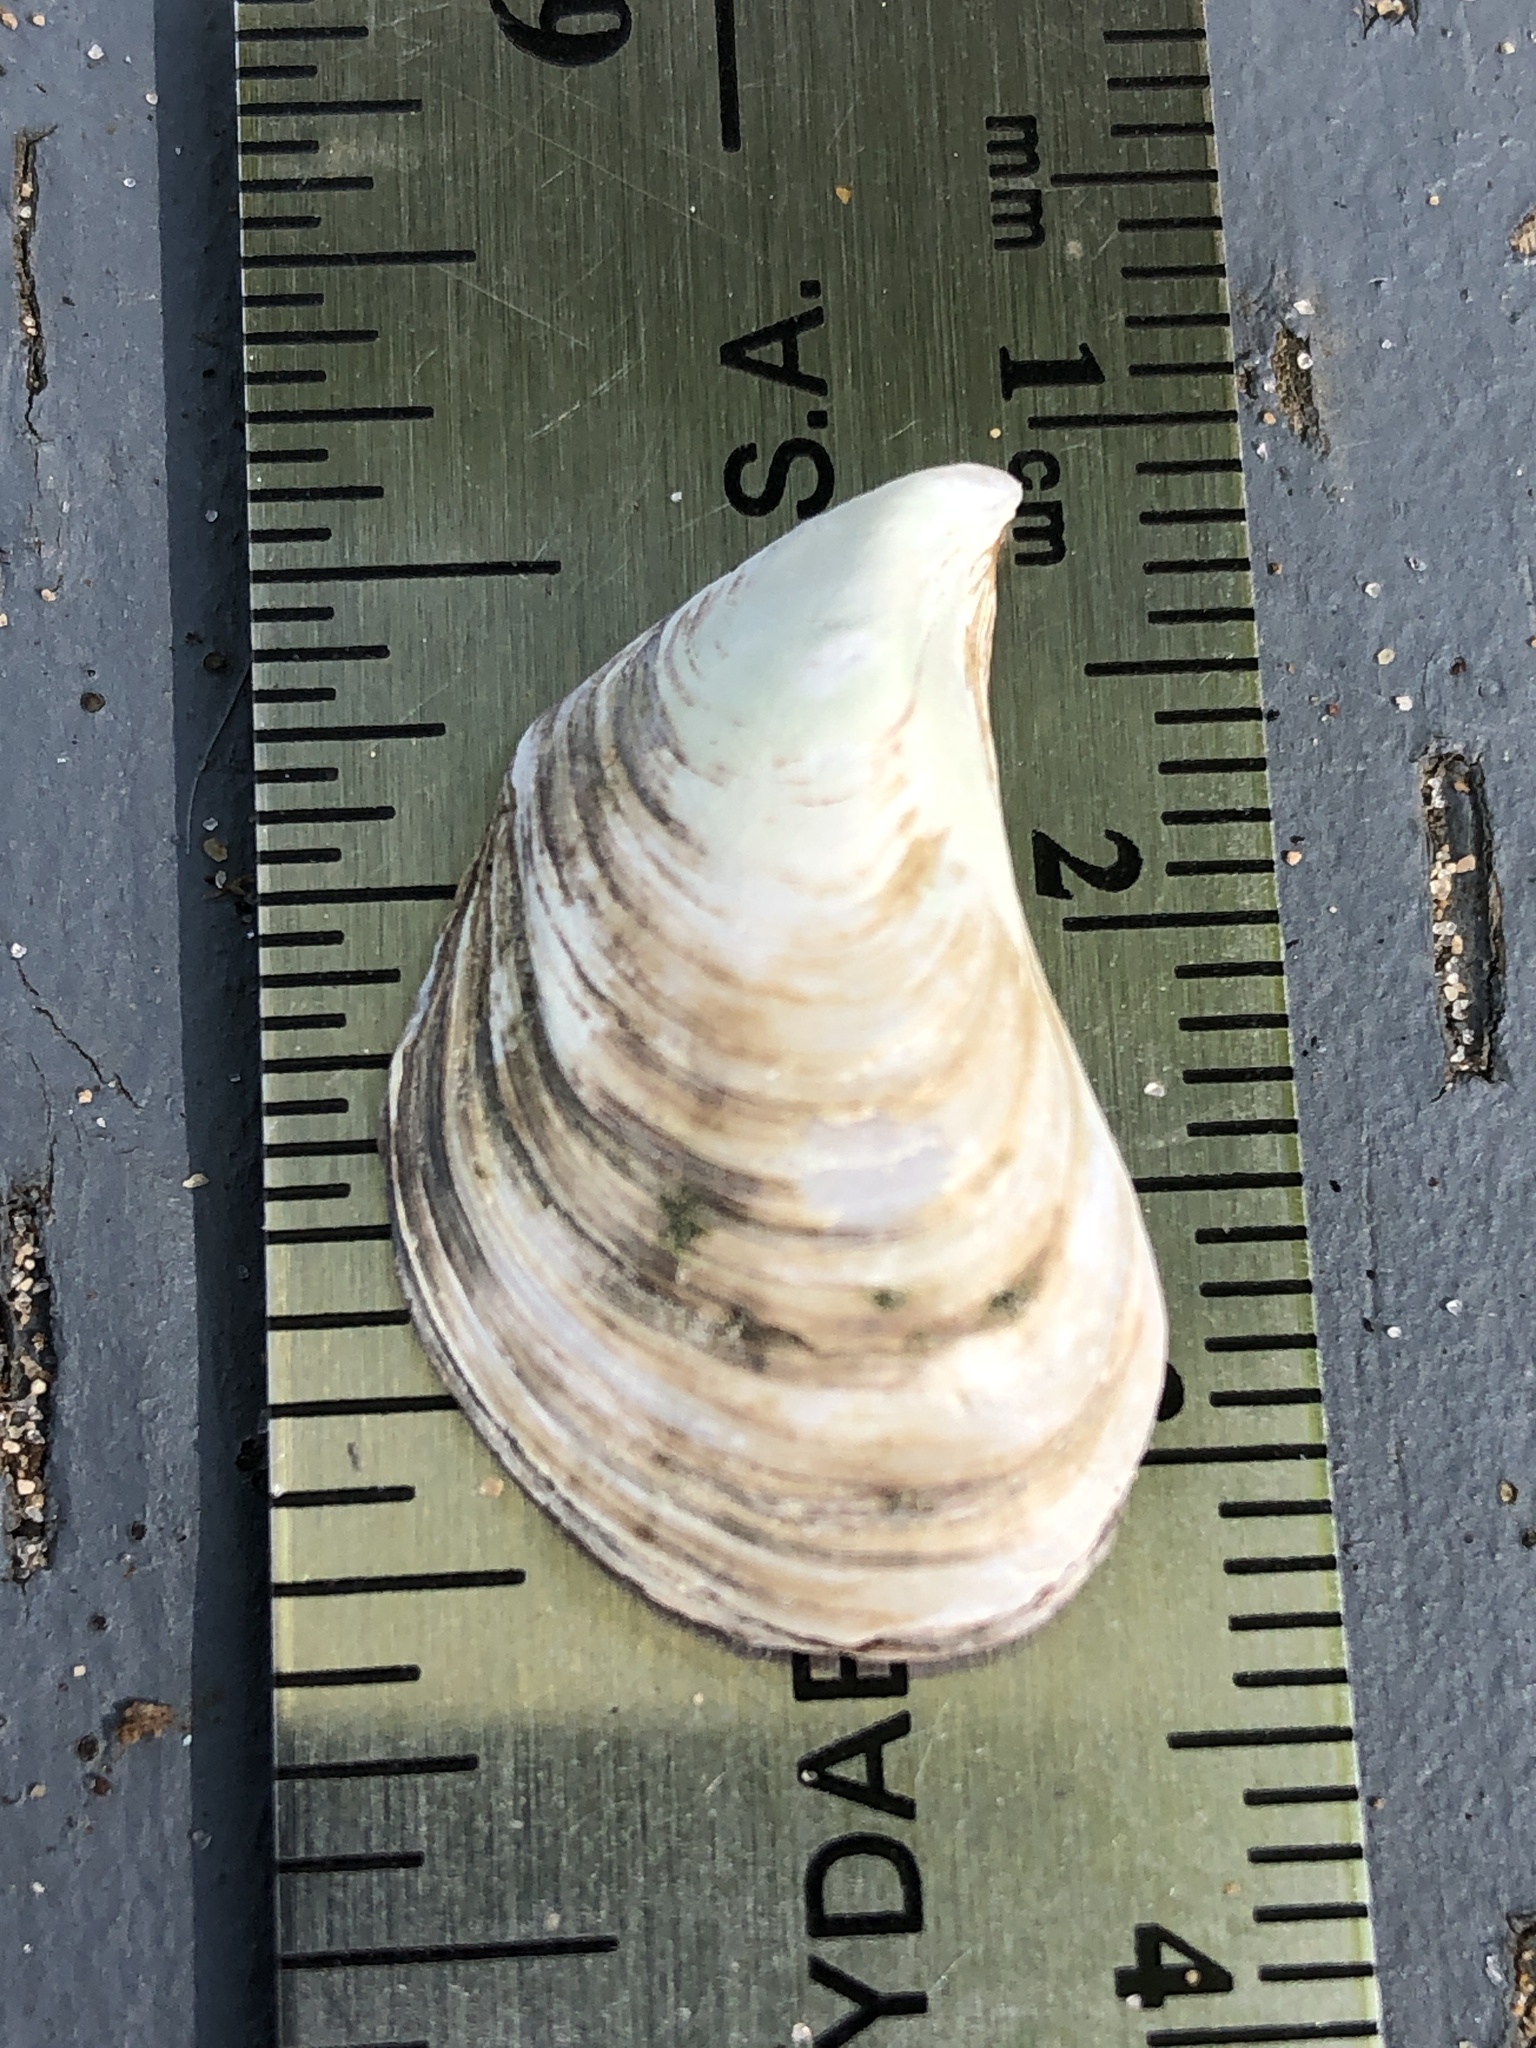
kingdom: Animalia
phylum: Mollusca
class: Bivalvia
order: Myida
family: Dreissenidae
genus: Dreissena
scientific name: Dreissena bugensis
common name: Quagga mussel
